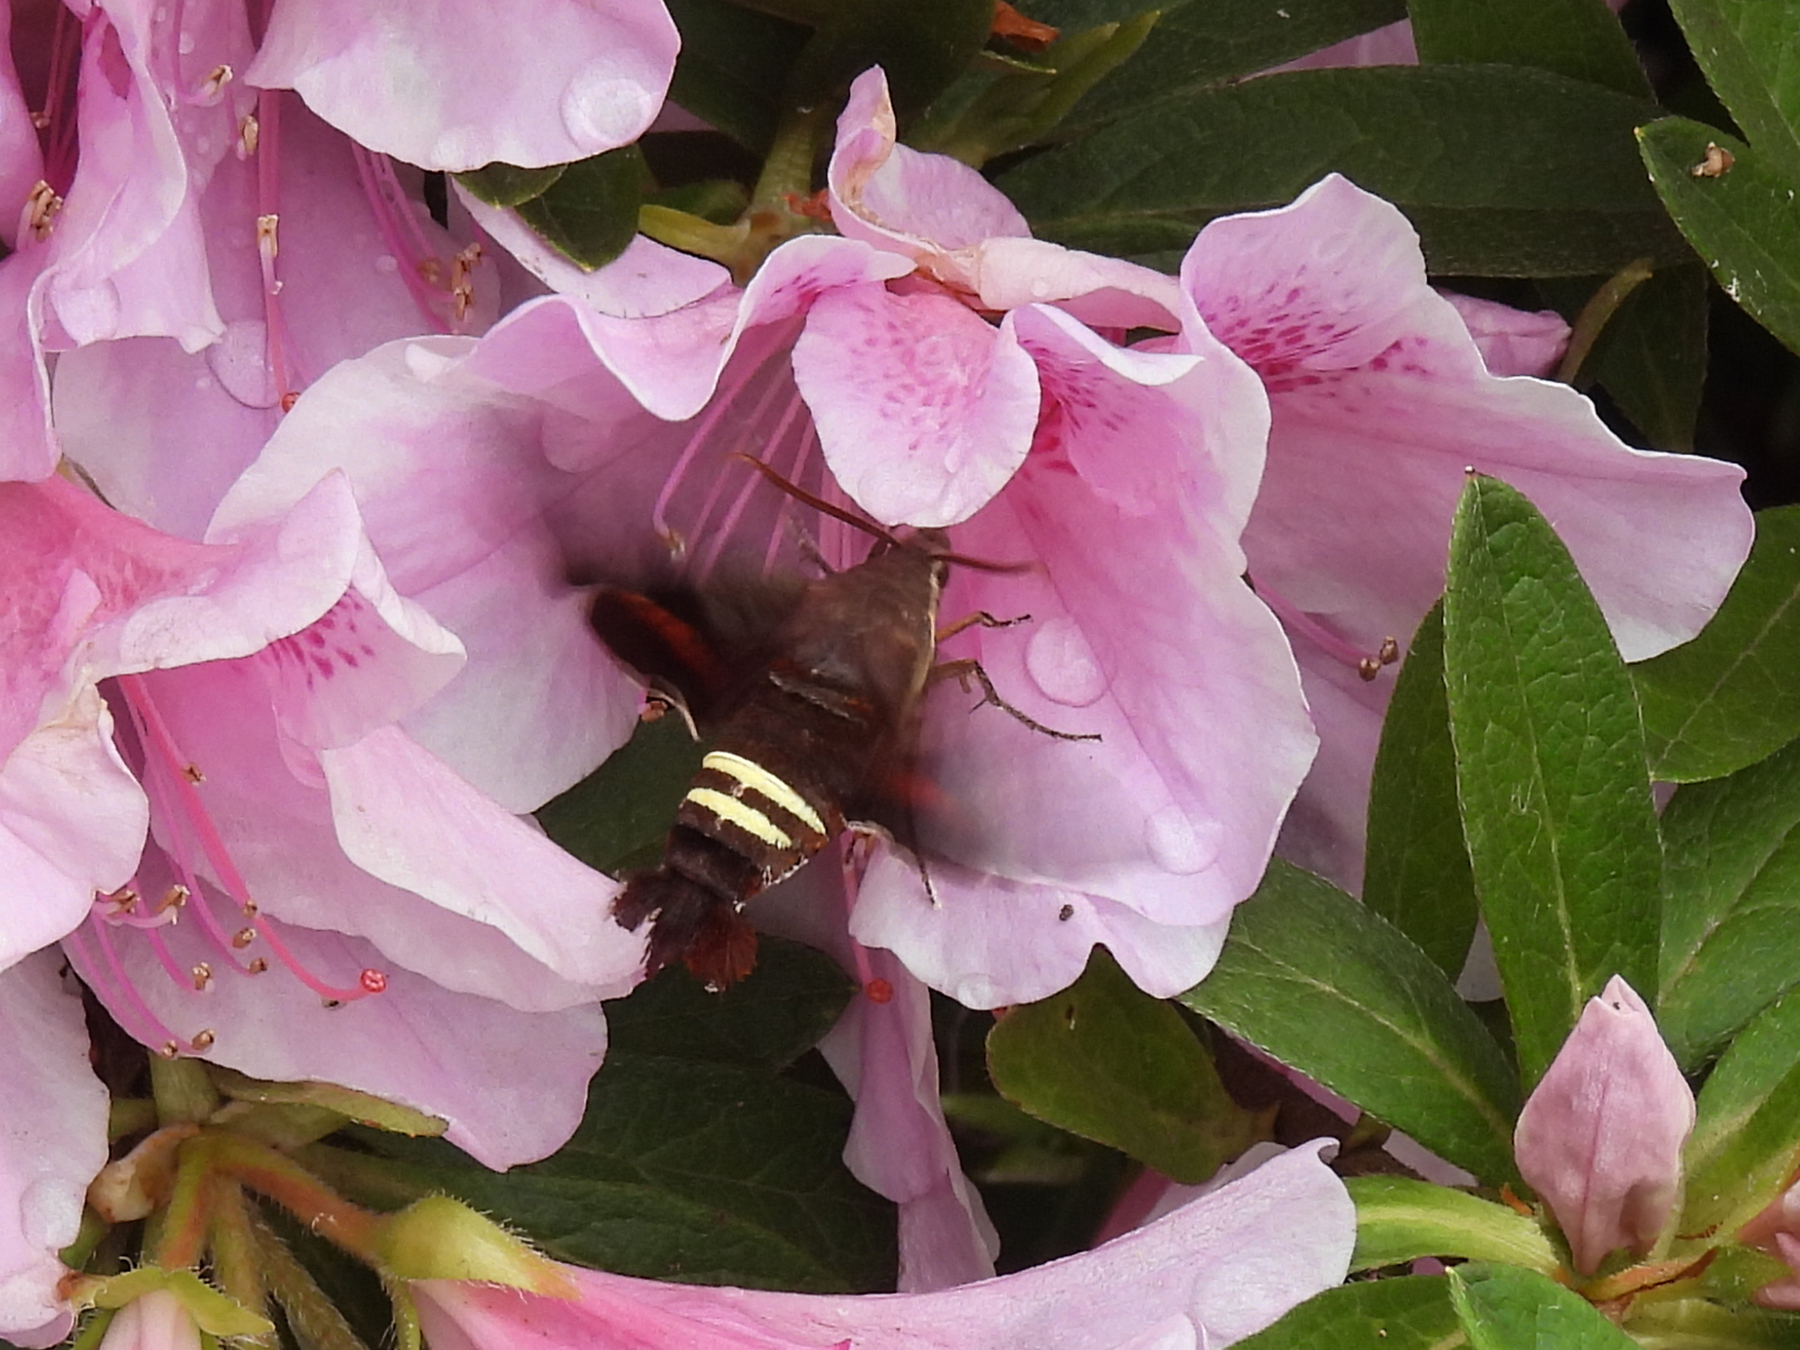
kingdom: Animalia
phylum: Arthropoda
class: Insecta
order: Lepidoptera
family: Sphingidae
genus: Amphion
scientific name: Amphion floridensis
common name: Nessus sphinx
